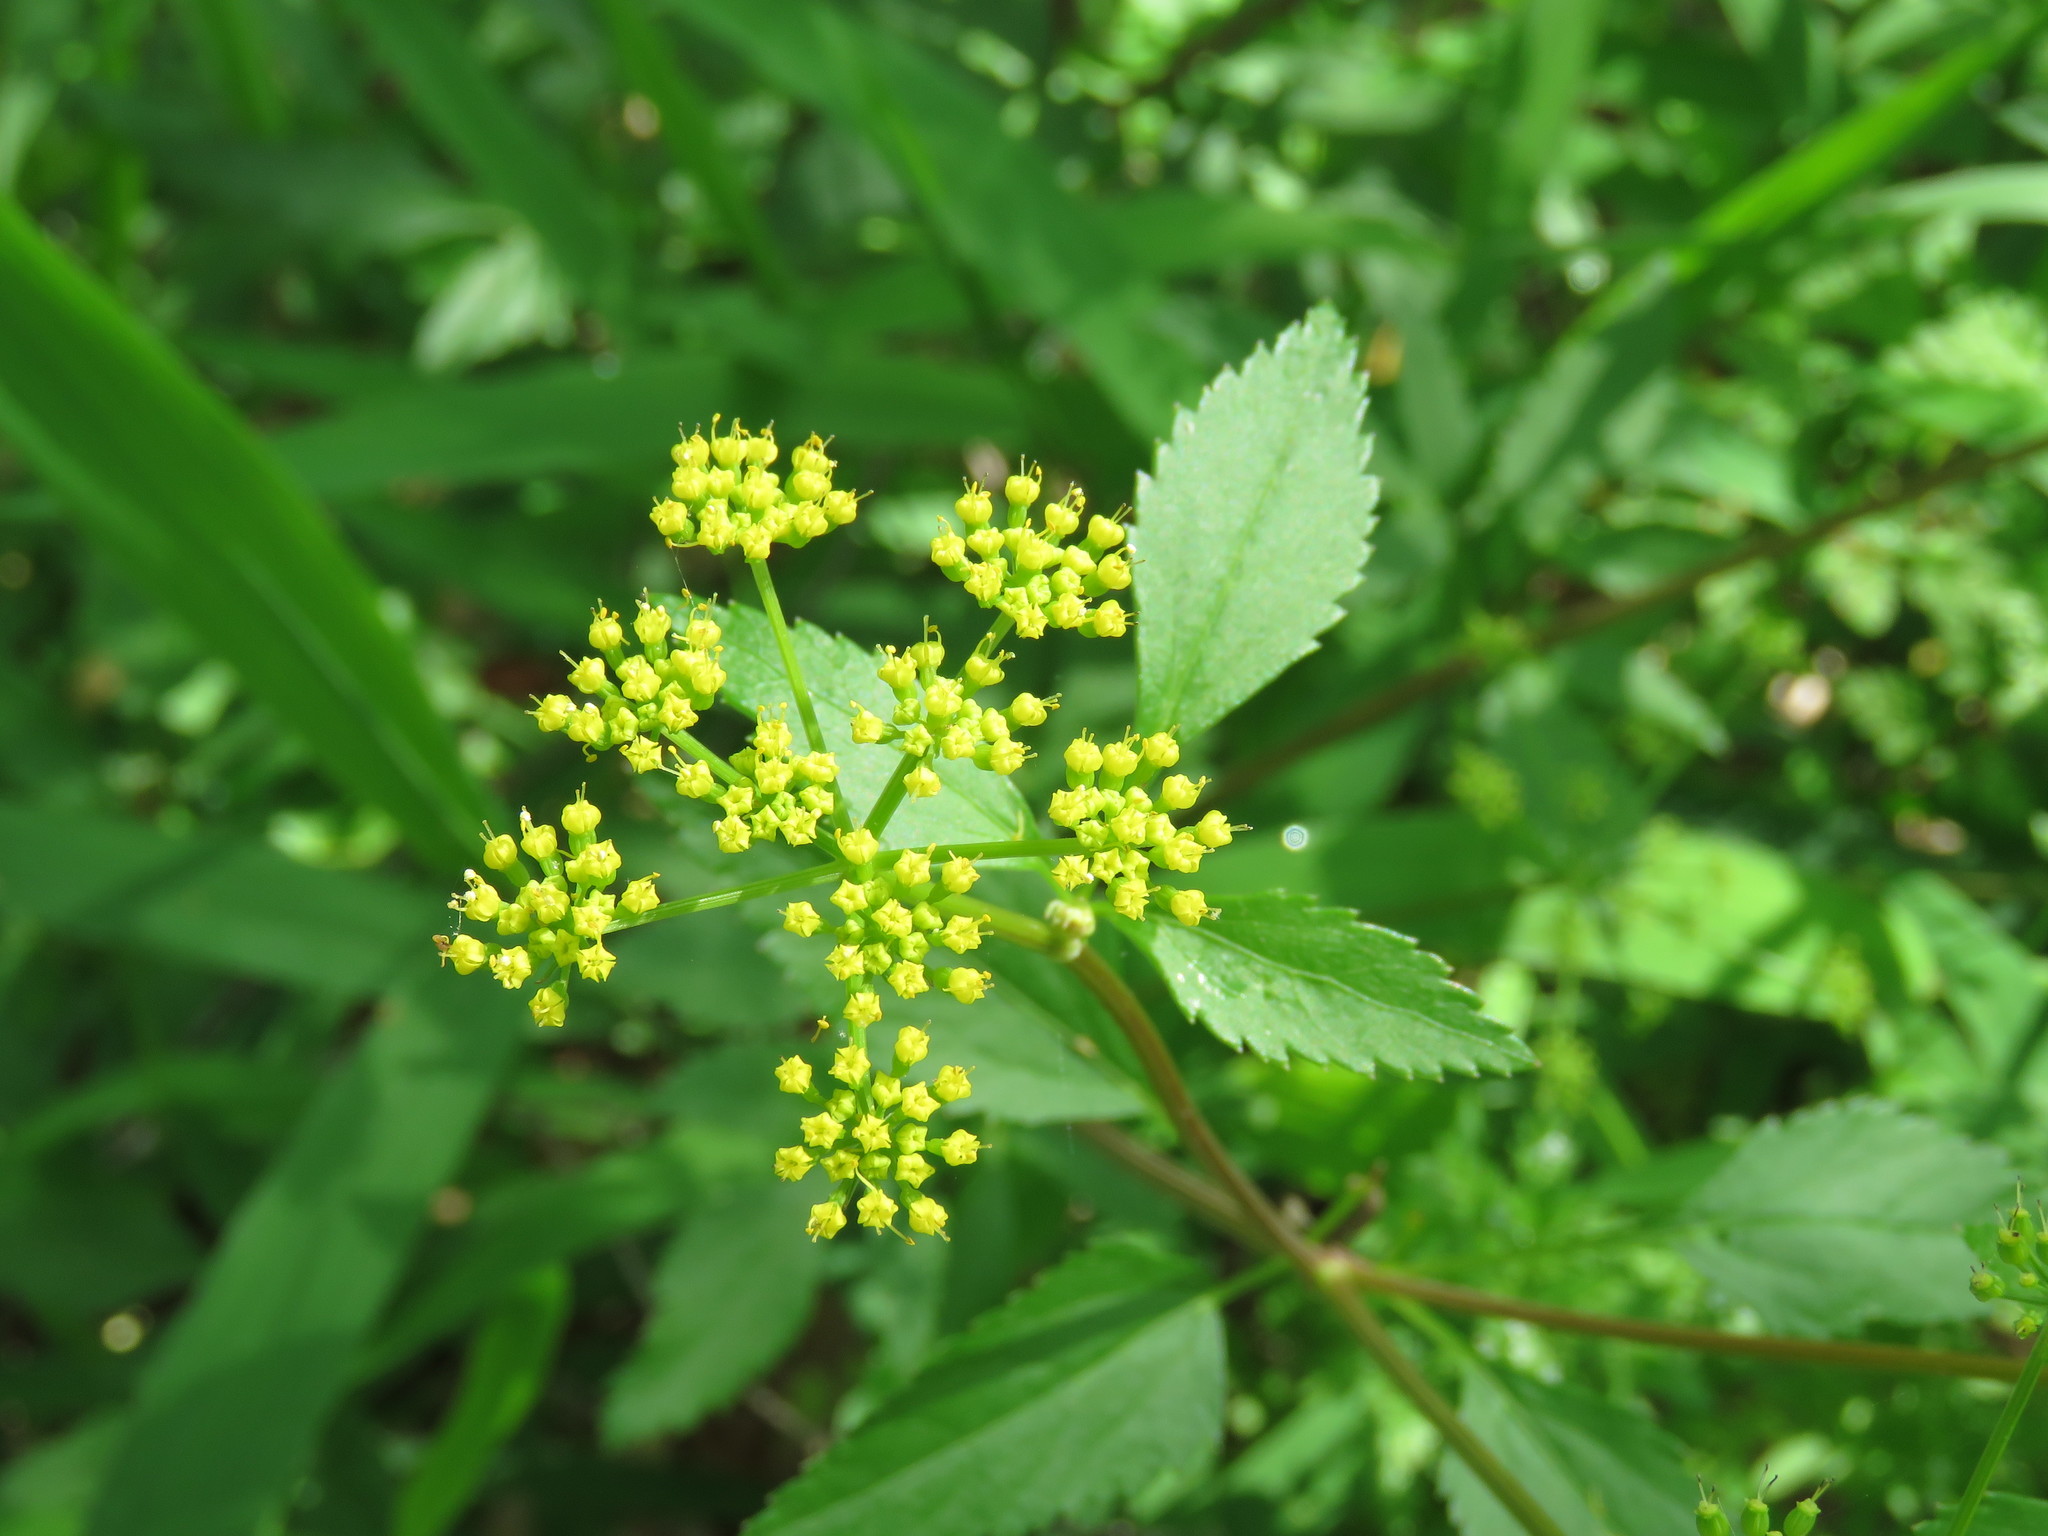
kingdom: Plantae
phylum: Tracheophyta
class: Magnoliopsida
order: Apiales
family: Apiaceae
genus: Zizia
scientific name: Zizia aurea
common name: Golden alexanders
